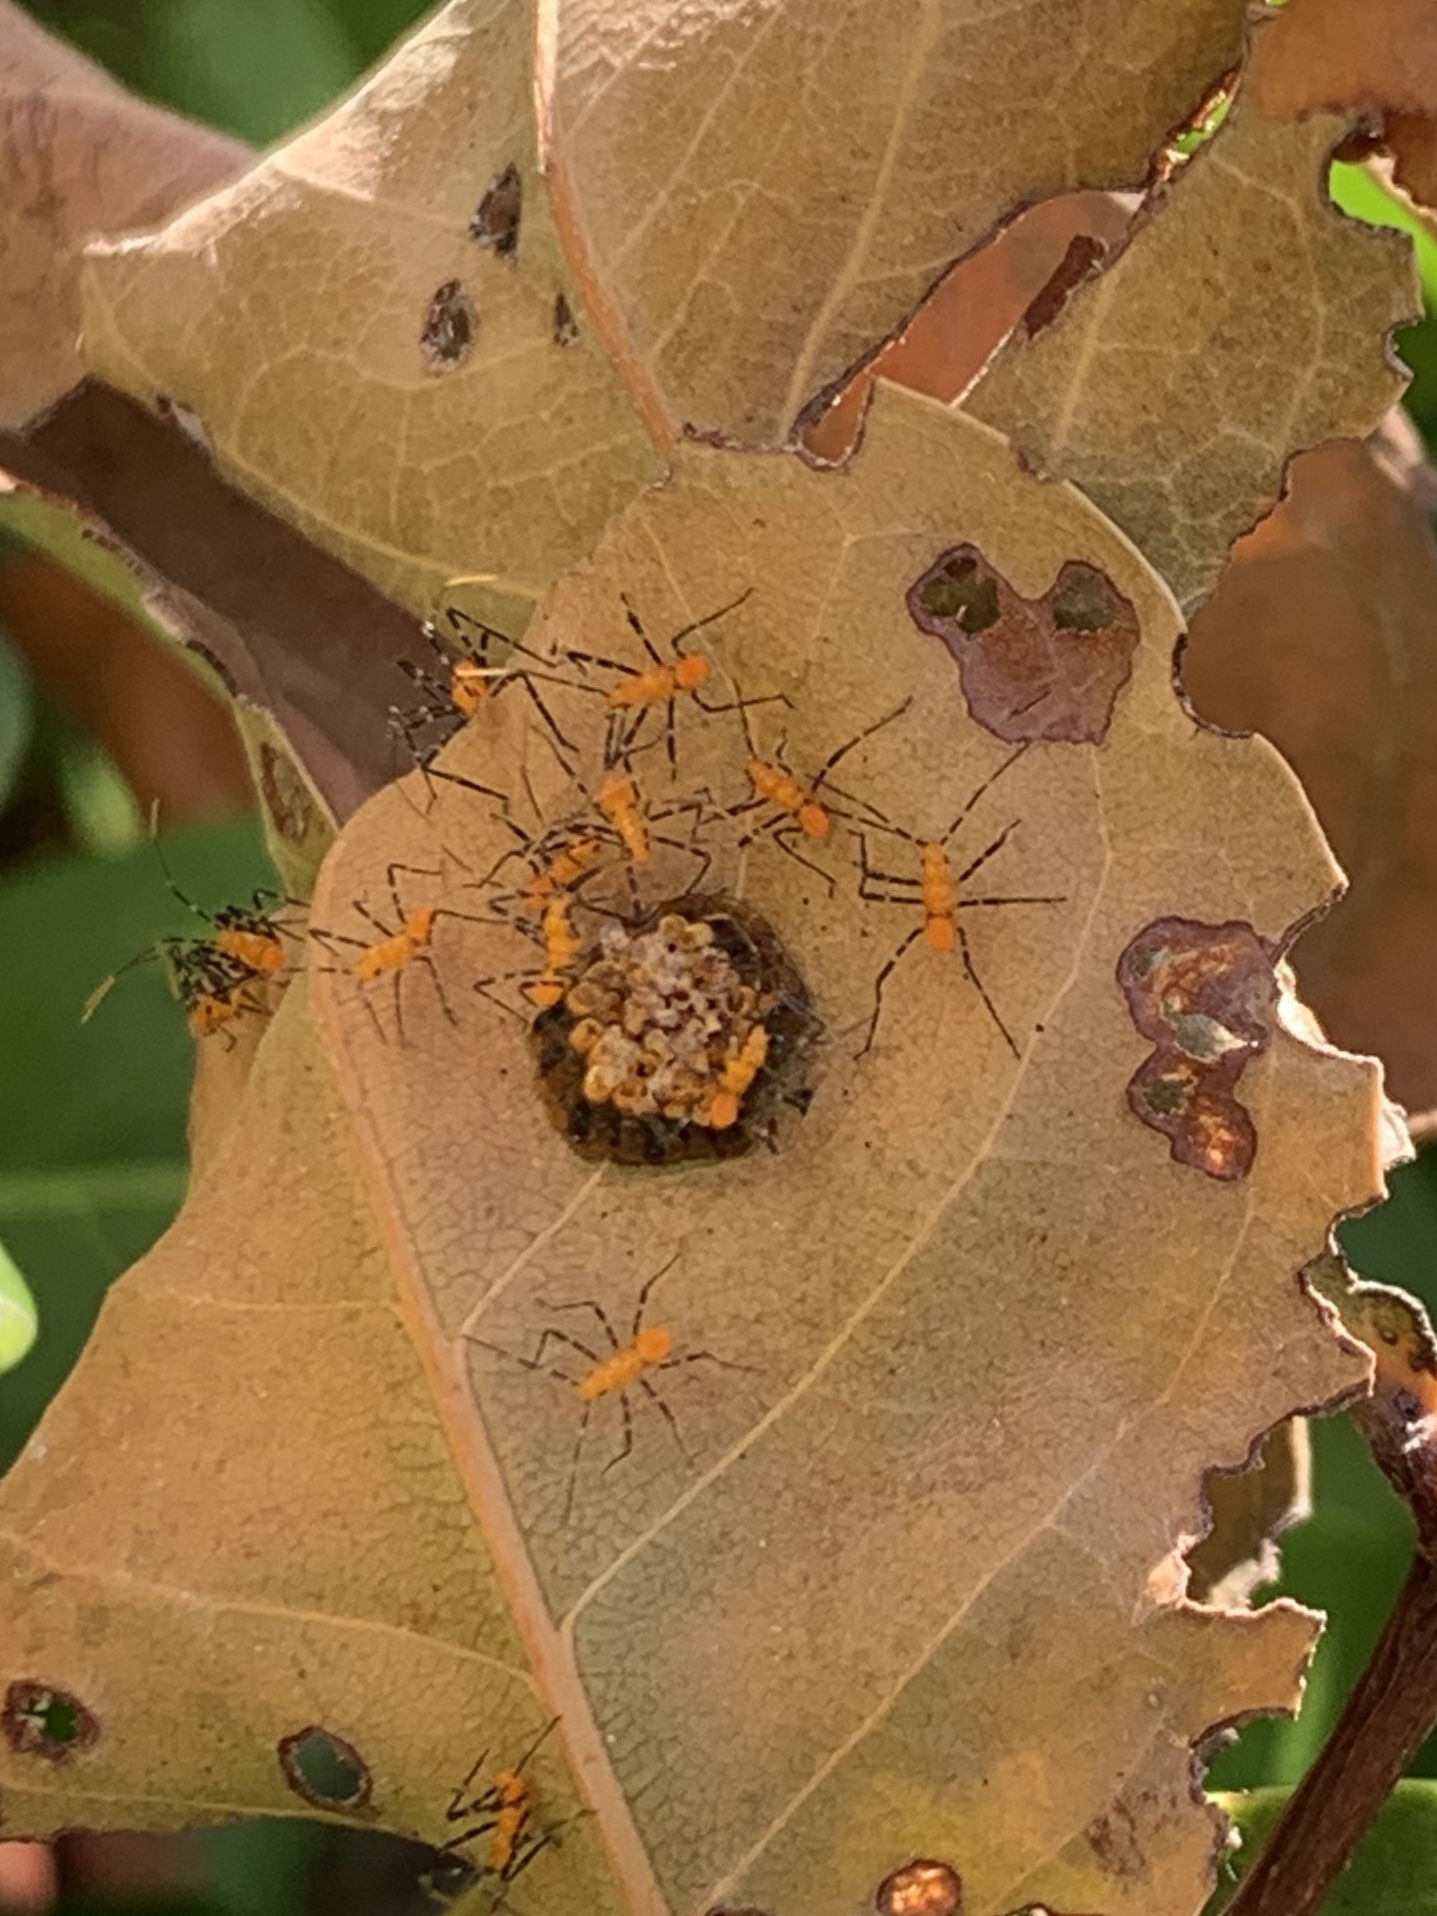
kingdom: Animalia
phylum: Arthropoda
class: Insecta
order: Hemiptera
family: Reduviidae
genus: Zelus
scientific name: Zelus longipes
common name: Milkweed assassin bug
